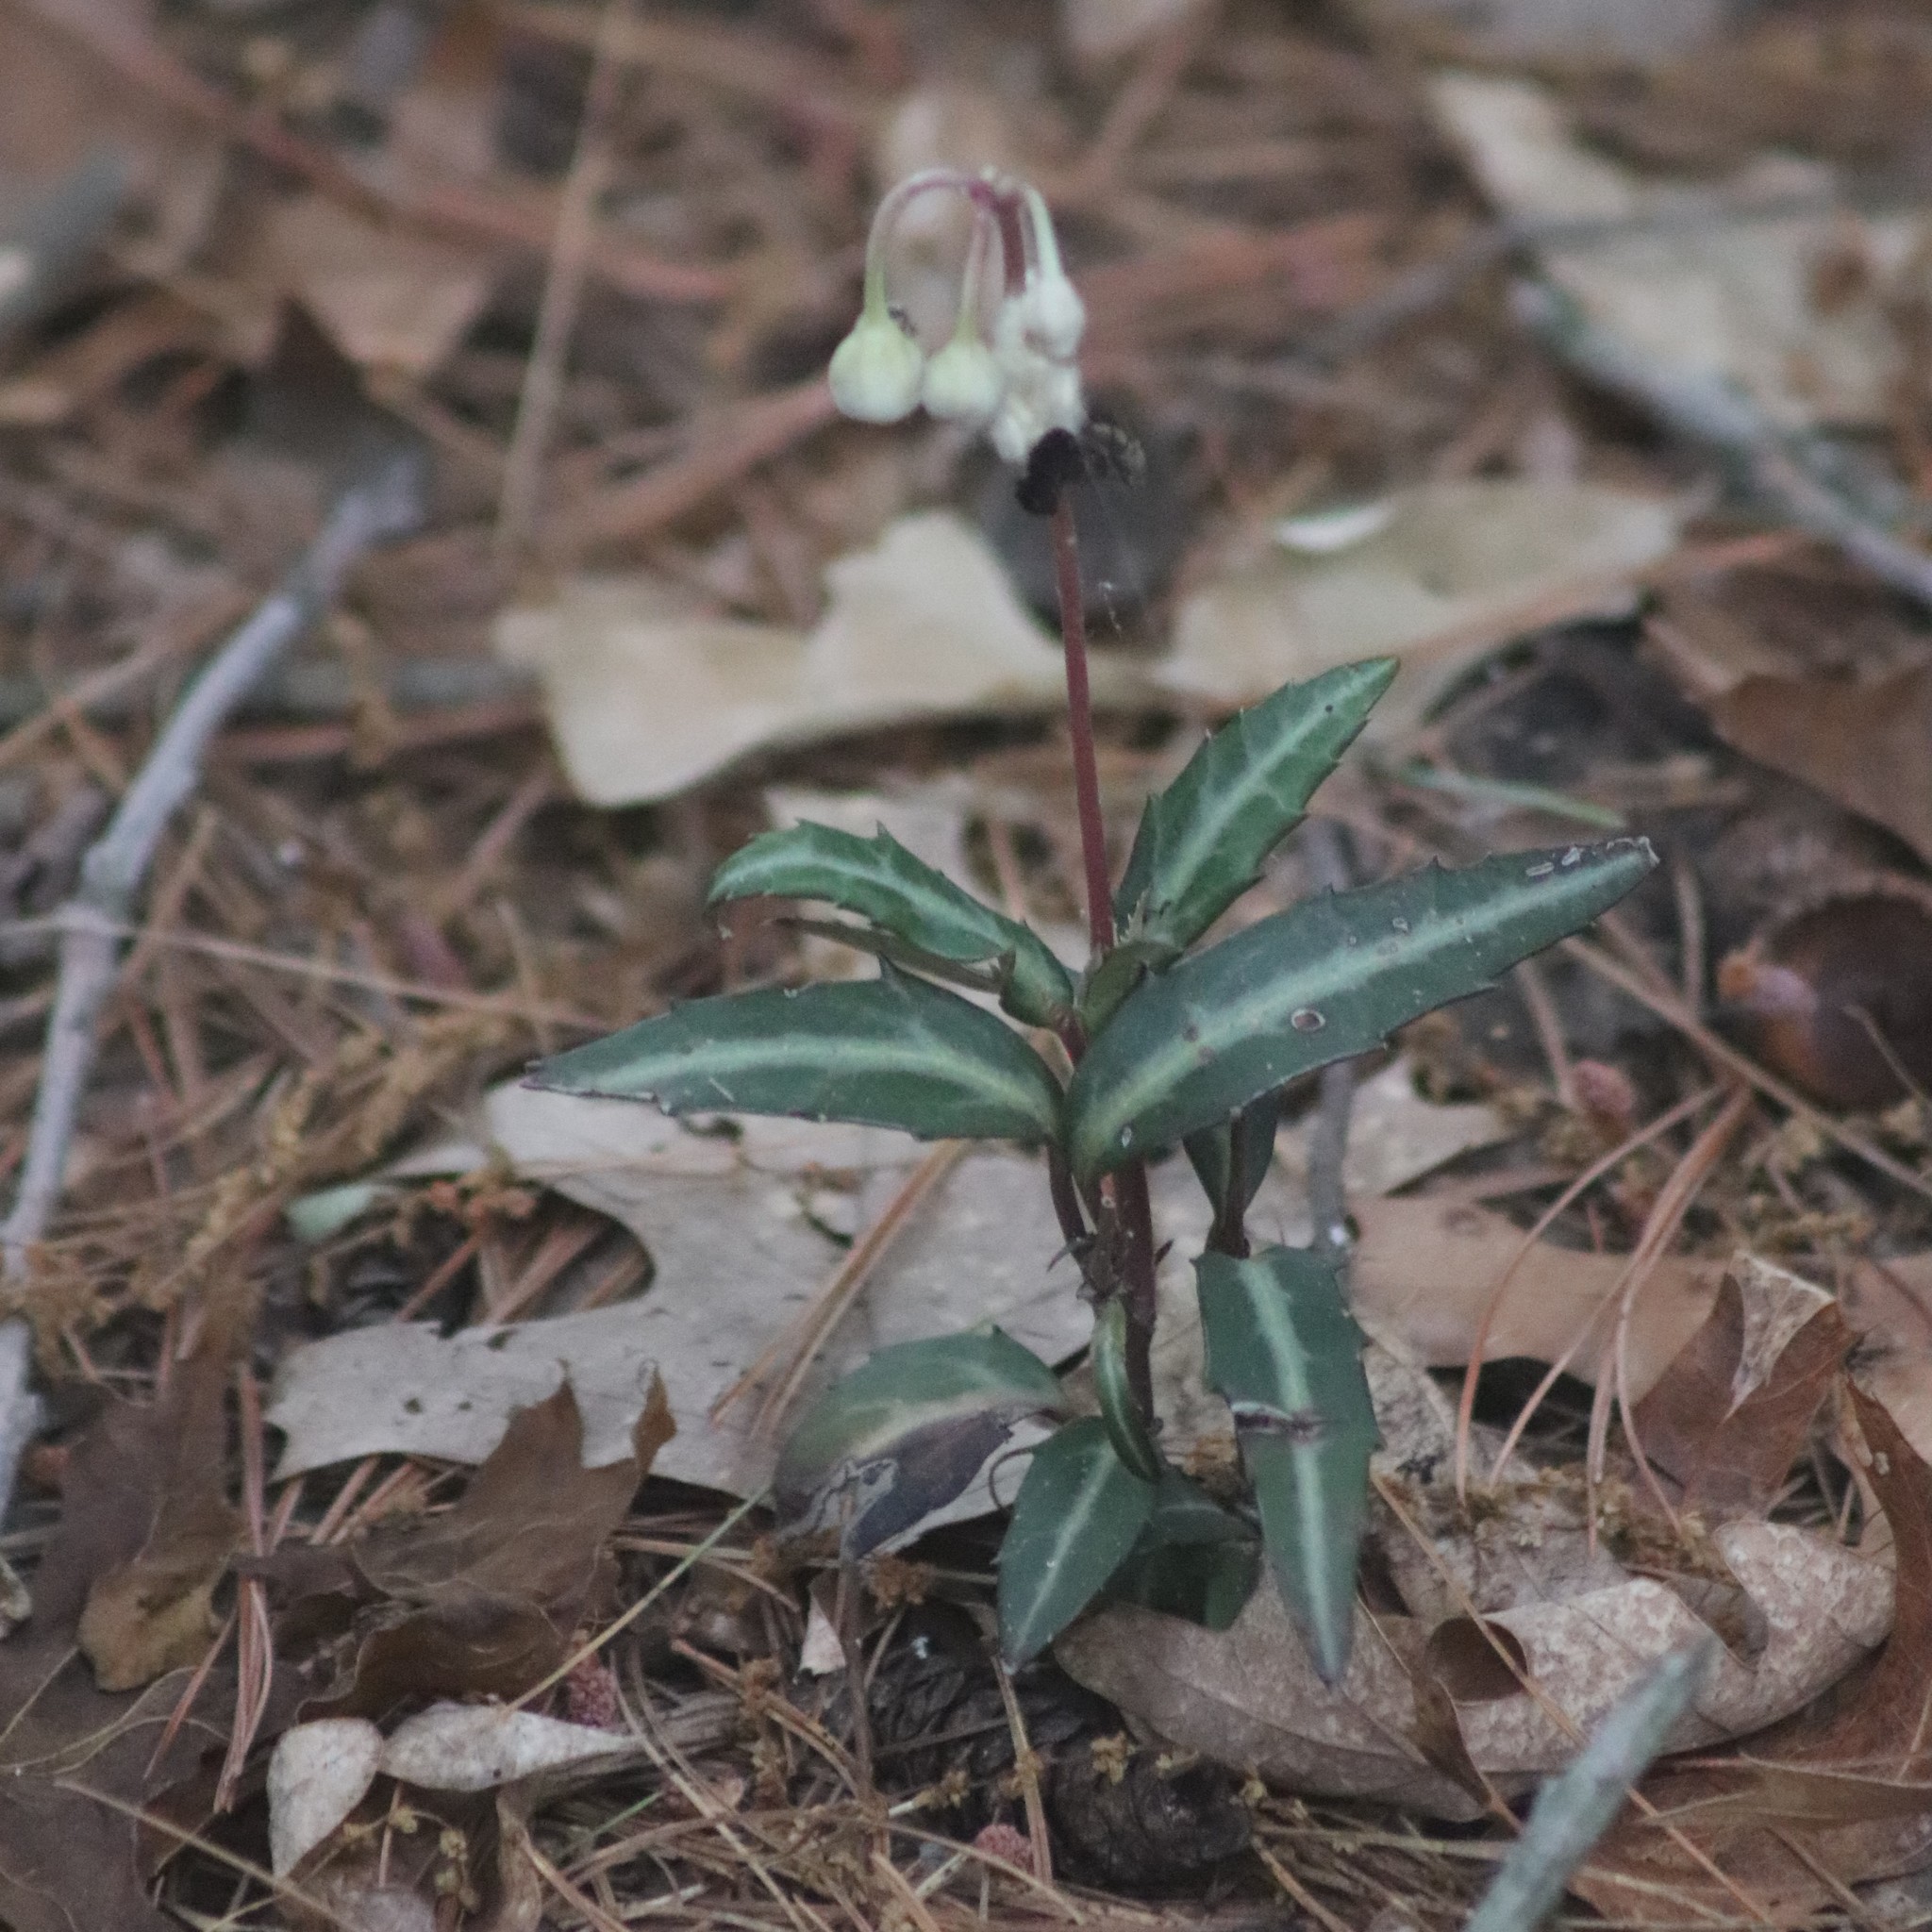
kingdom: Plantae
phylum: Tracheophyta
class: Magnoliopsida
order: Ericales
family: Ericaceae
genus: Chimaphila
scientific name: Chimaphila maculata
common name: Spotted pipsissewa
